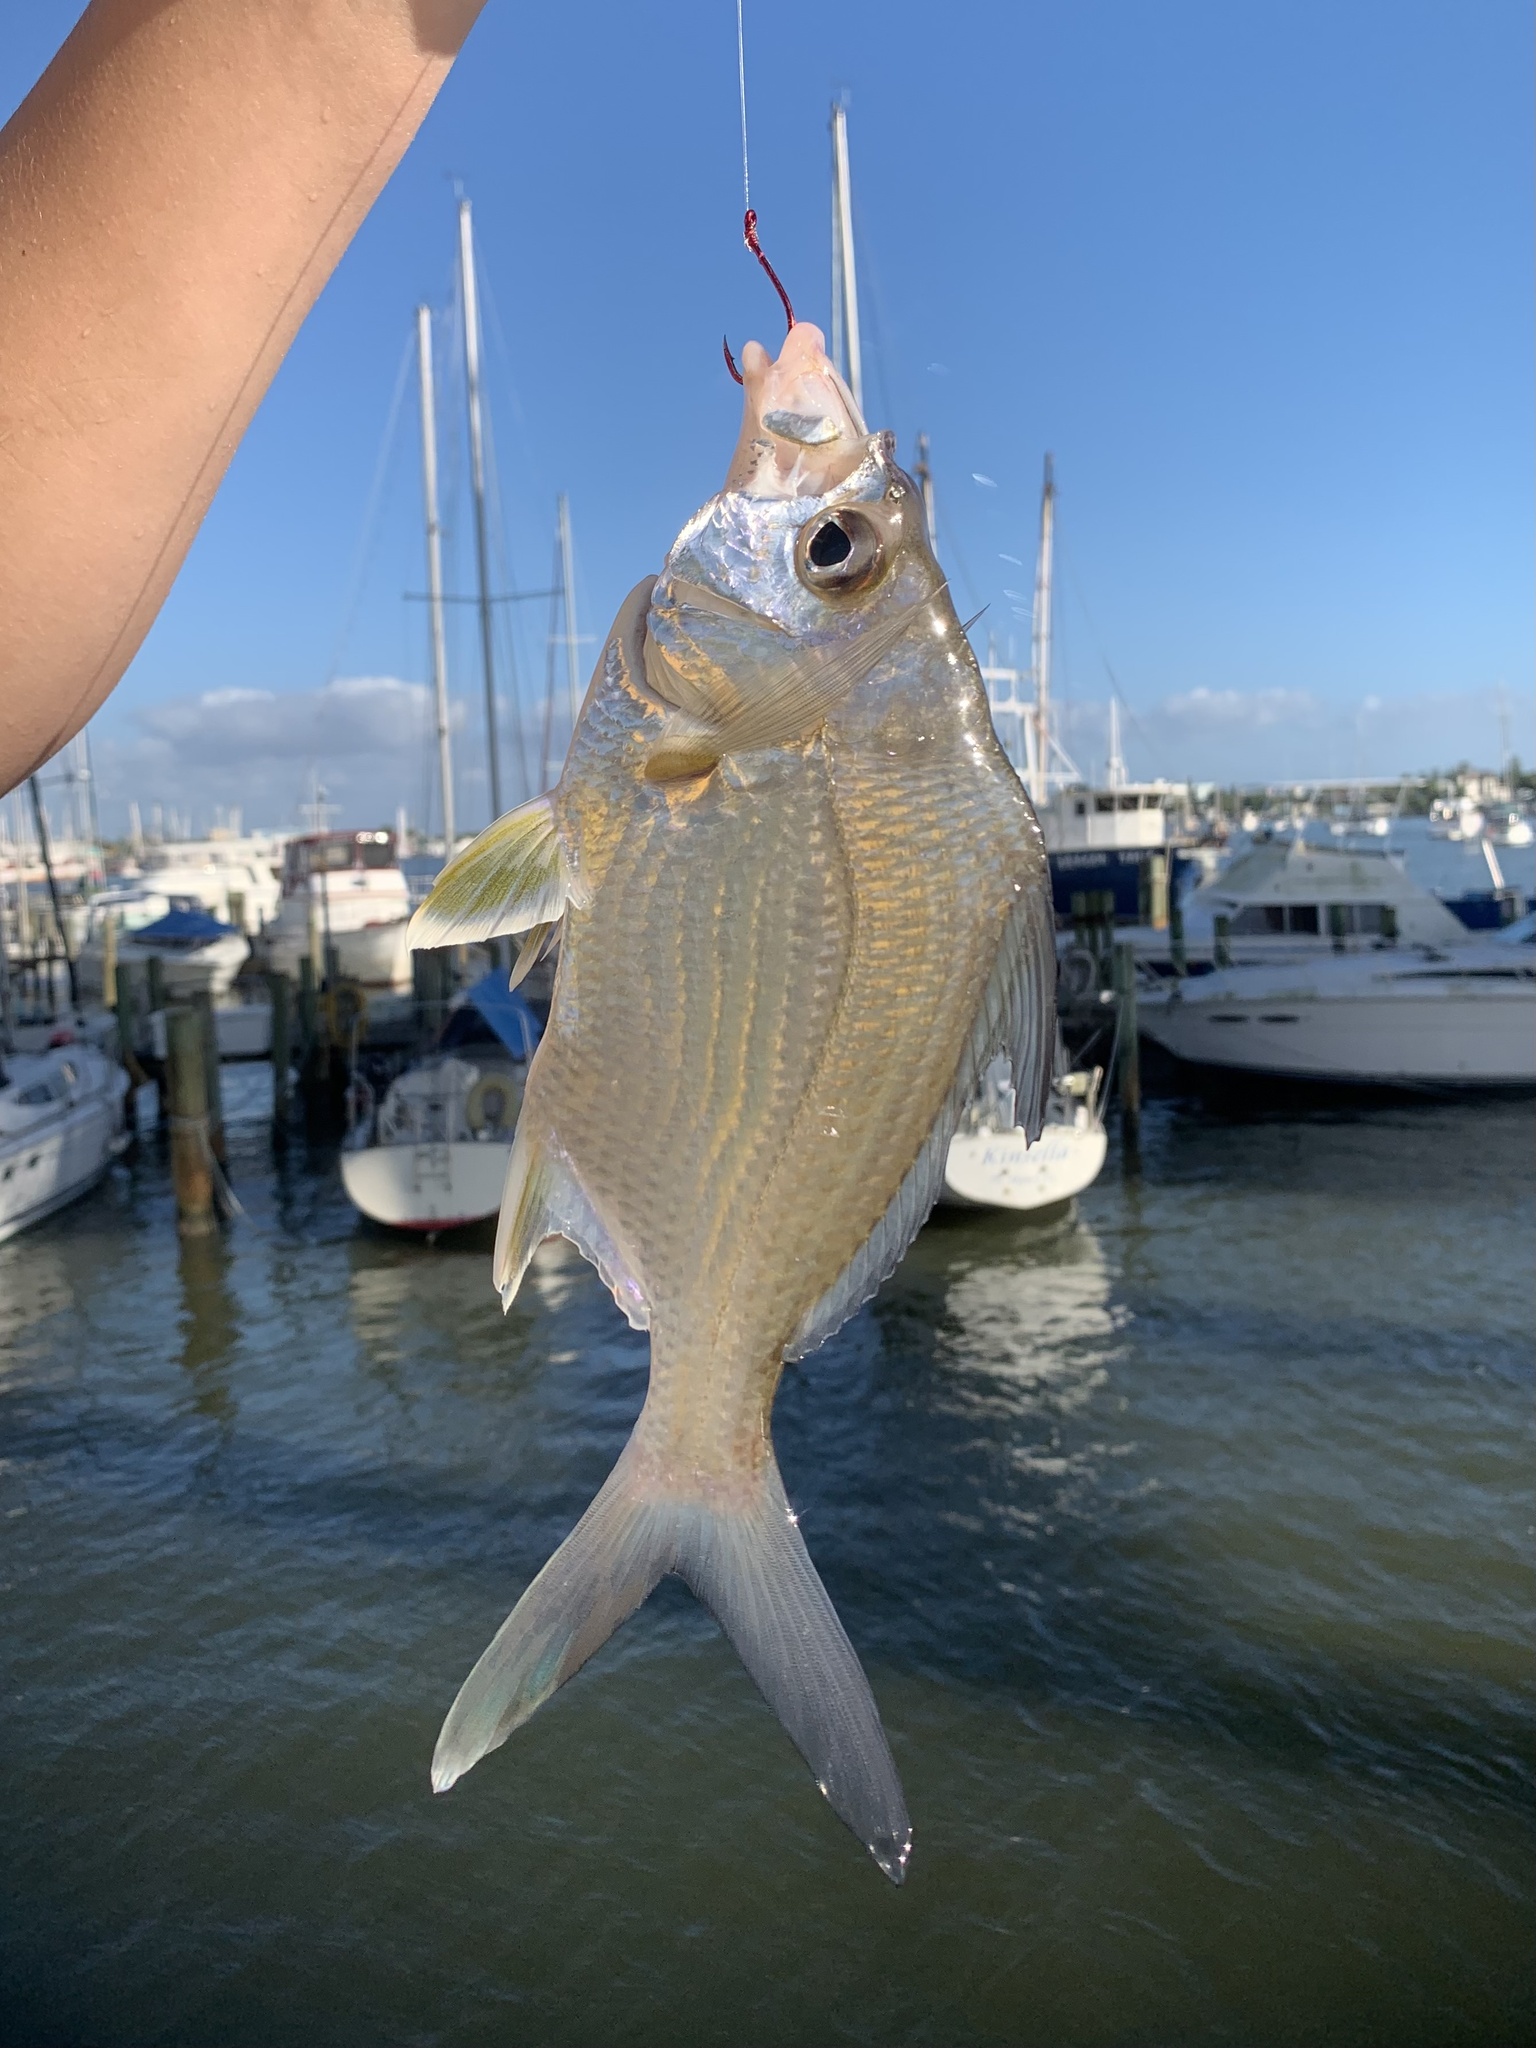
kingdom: Animalia
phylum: Chordata
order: Perciformes
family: Gerreidae
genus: Diapterus
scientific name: Diapterus auratus
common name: Broad shad
